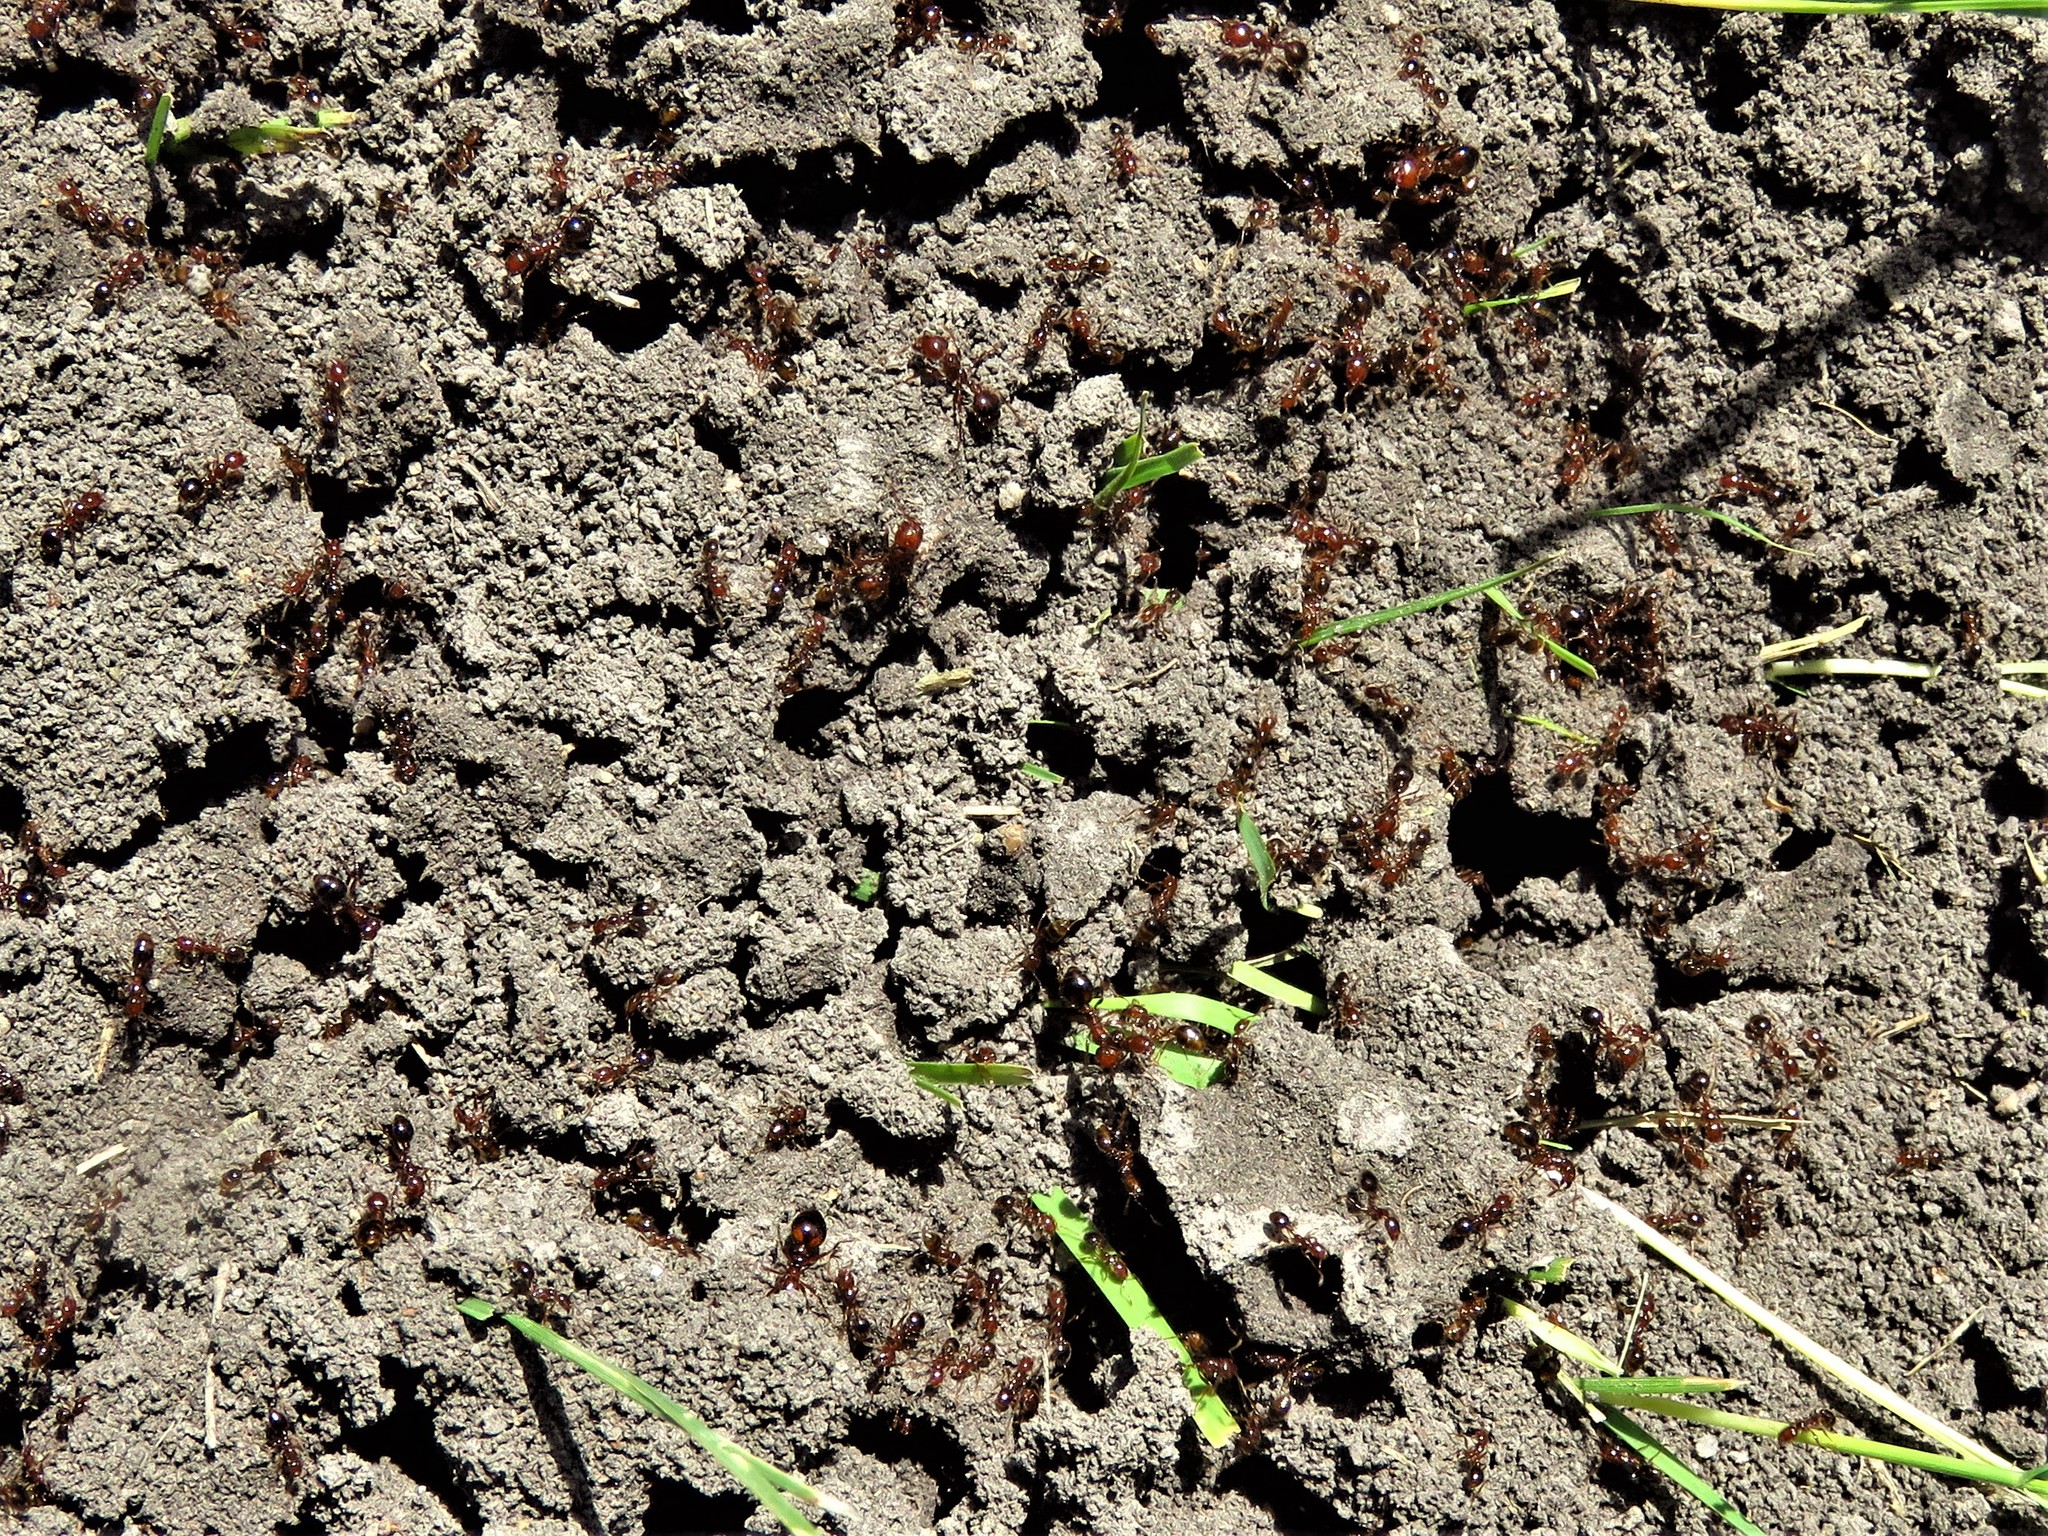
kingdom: Animalia
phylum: Arthropoda
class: Insecta
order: Hymenoptera
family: Formicidae
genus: Solenopsis
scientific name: Solenopsis invicta
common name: Red imported fire ant
